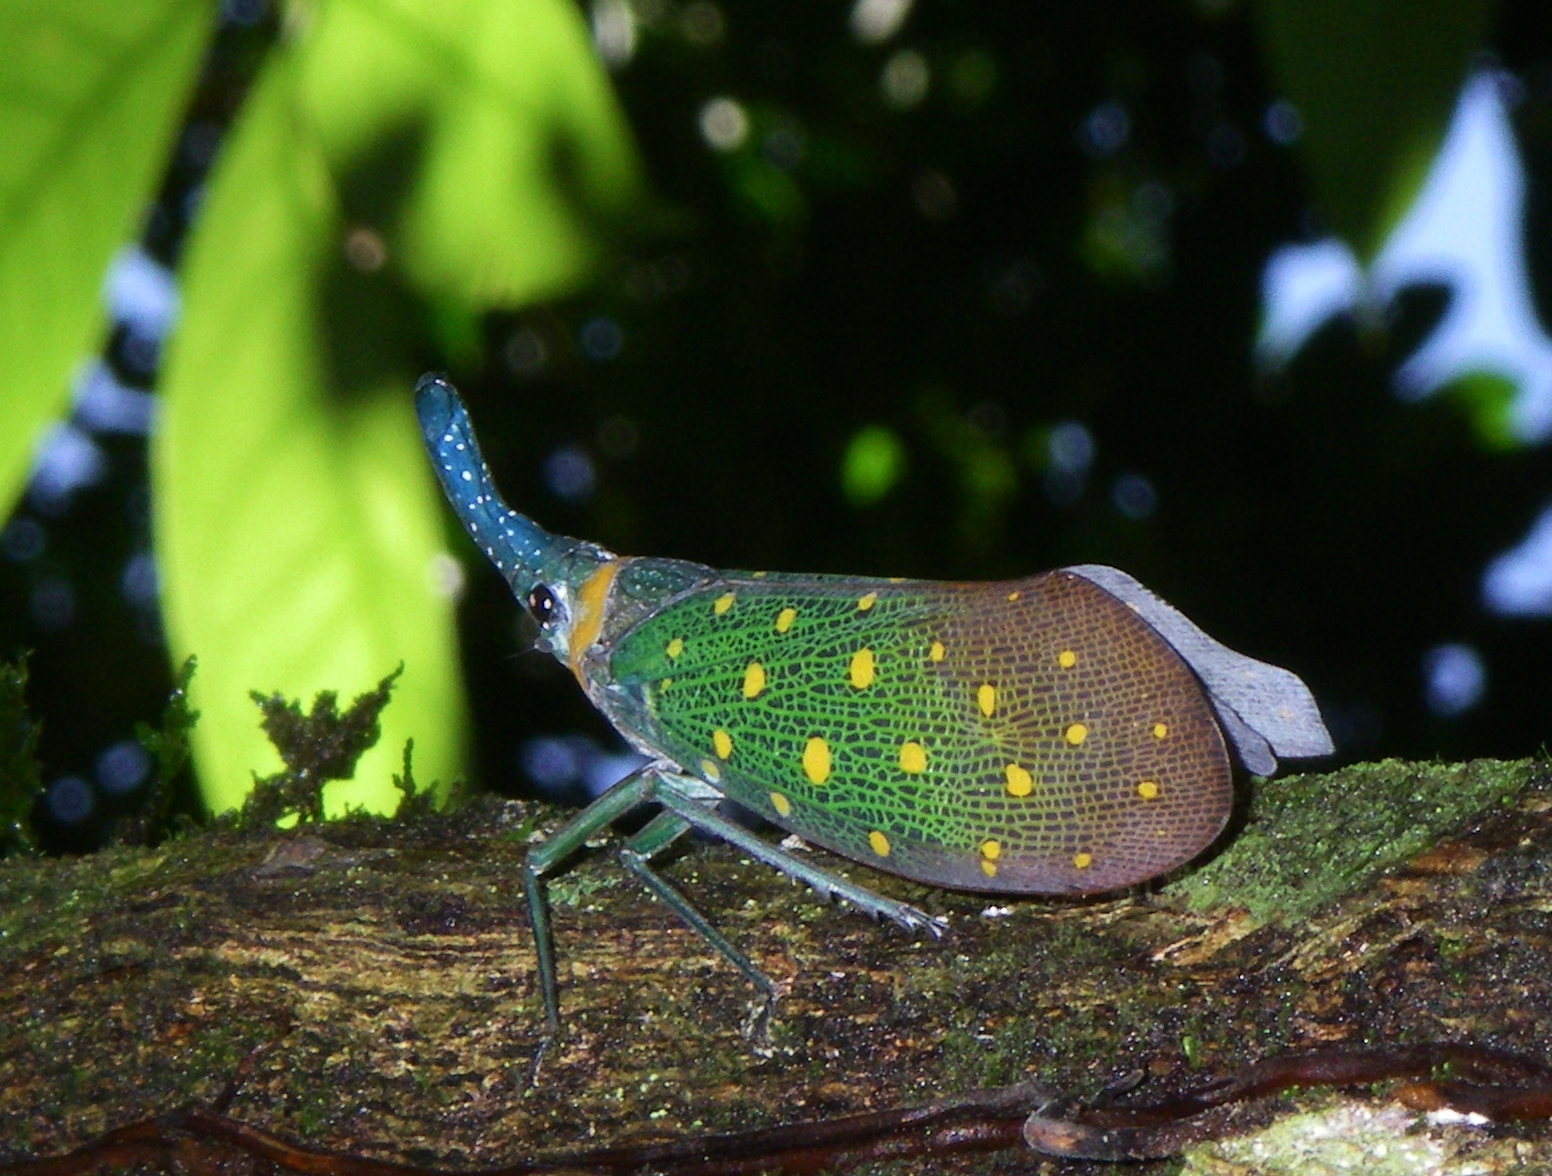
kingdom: Animalia
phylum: Arthropoda
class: Insecta
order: Hemiptera
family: Fulgoridae
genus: Pyrops
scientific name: Pyrops whiteheadi
